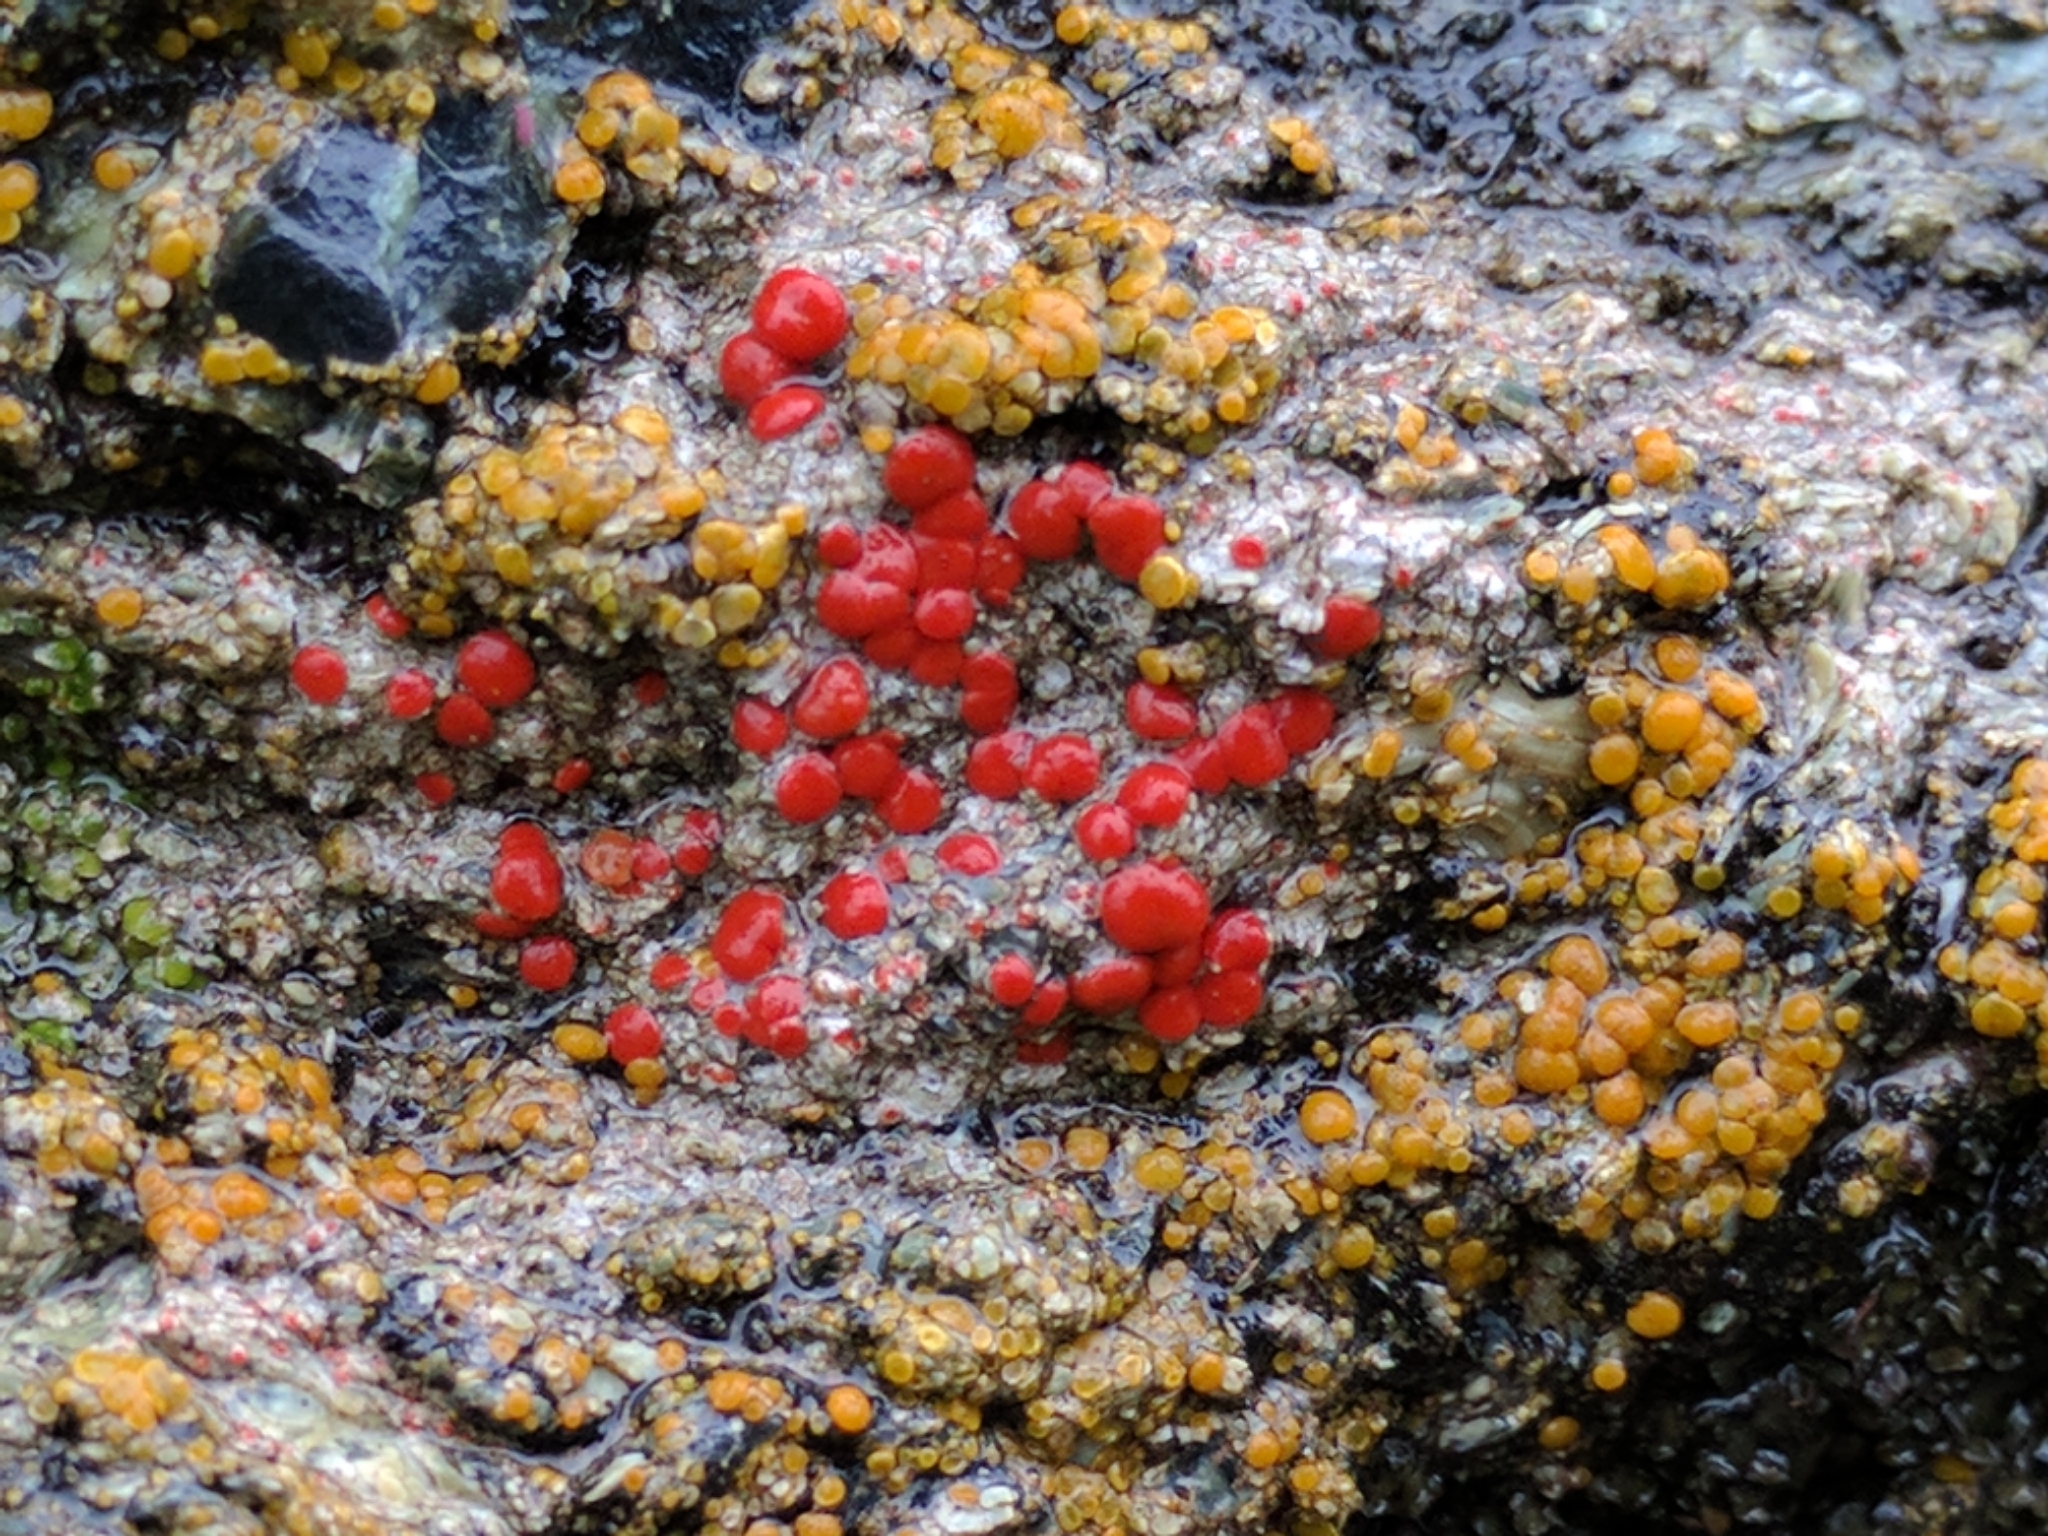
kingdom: Fungi
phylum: Ascomycota
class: Lecanoromycetes
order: Teloschistales
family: Teloschistaceae
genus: Tomnashia
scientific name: Tomnashia luteominia
